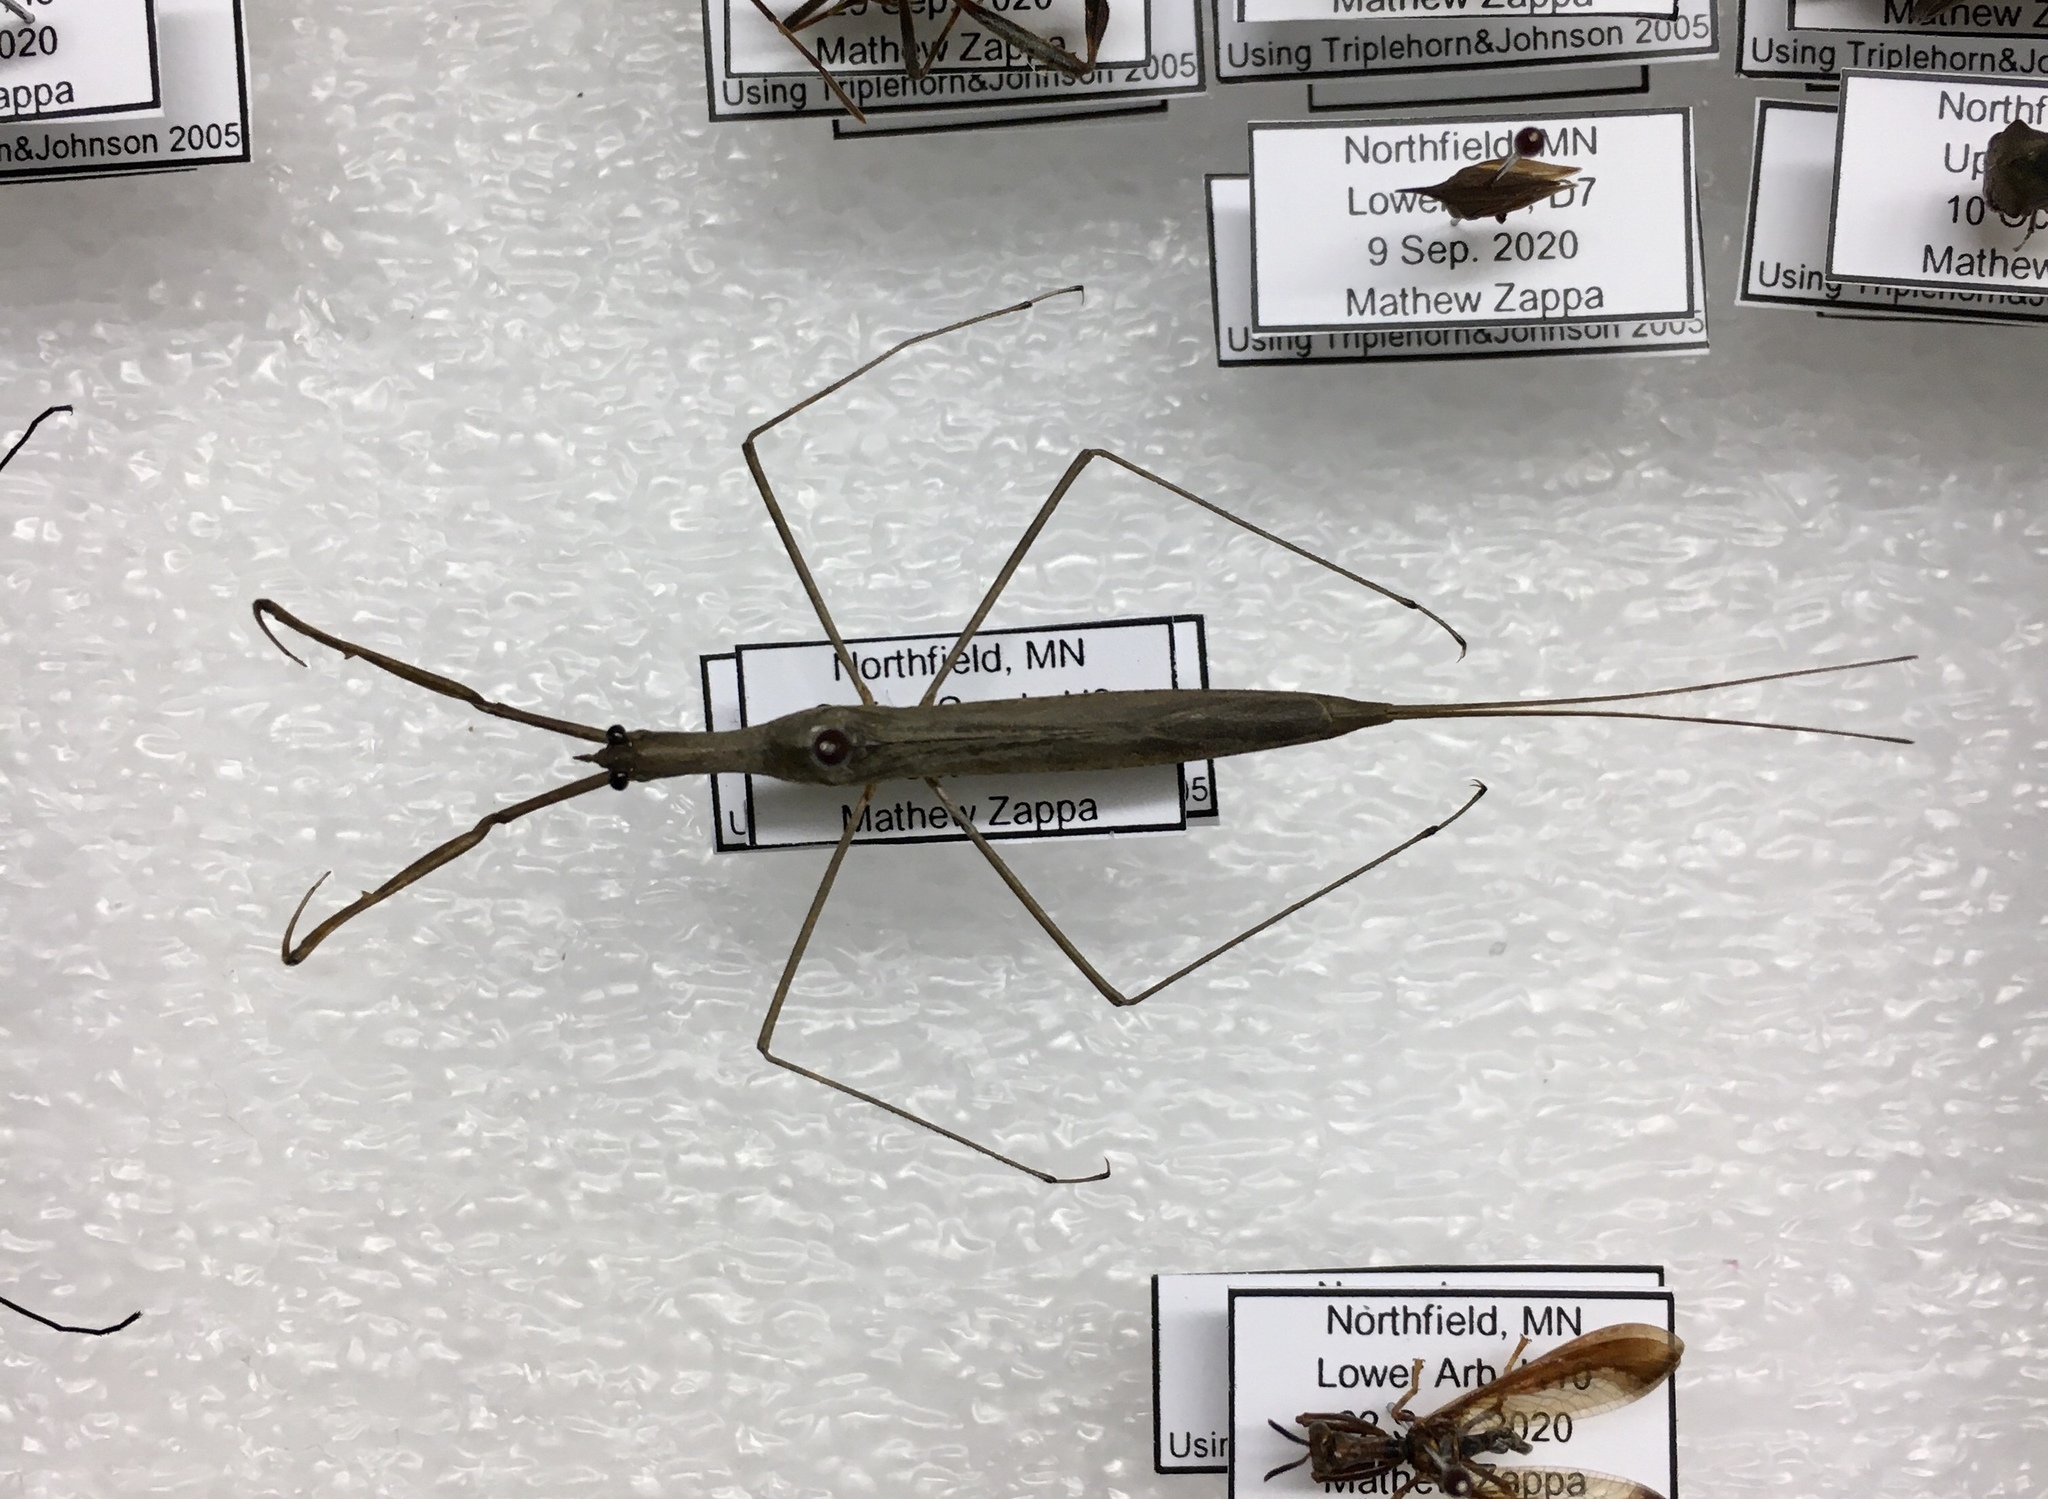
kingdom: Animalia
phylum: Arthropoda
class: Insecta
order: Hemiptera
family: Nepidae
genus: Ranatra
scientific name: Ranatra fusca
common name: Brown waterscorpion
